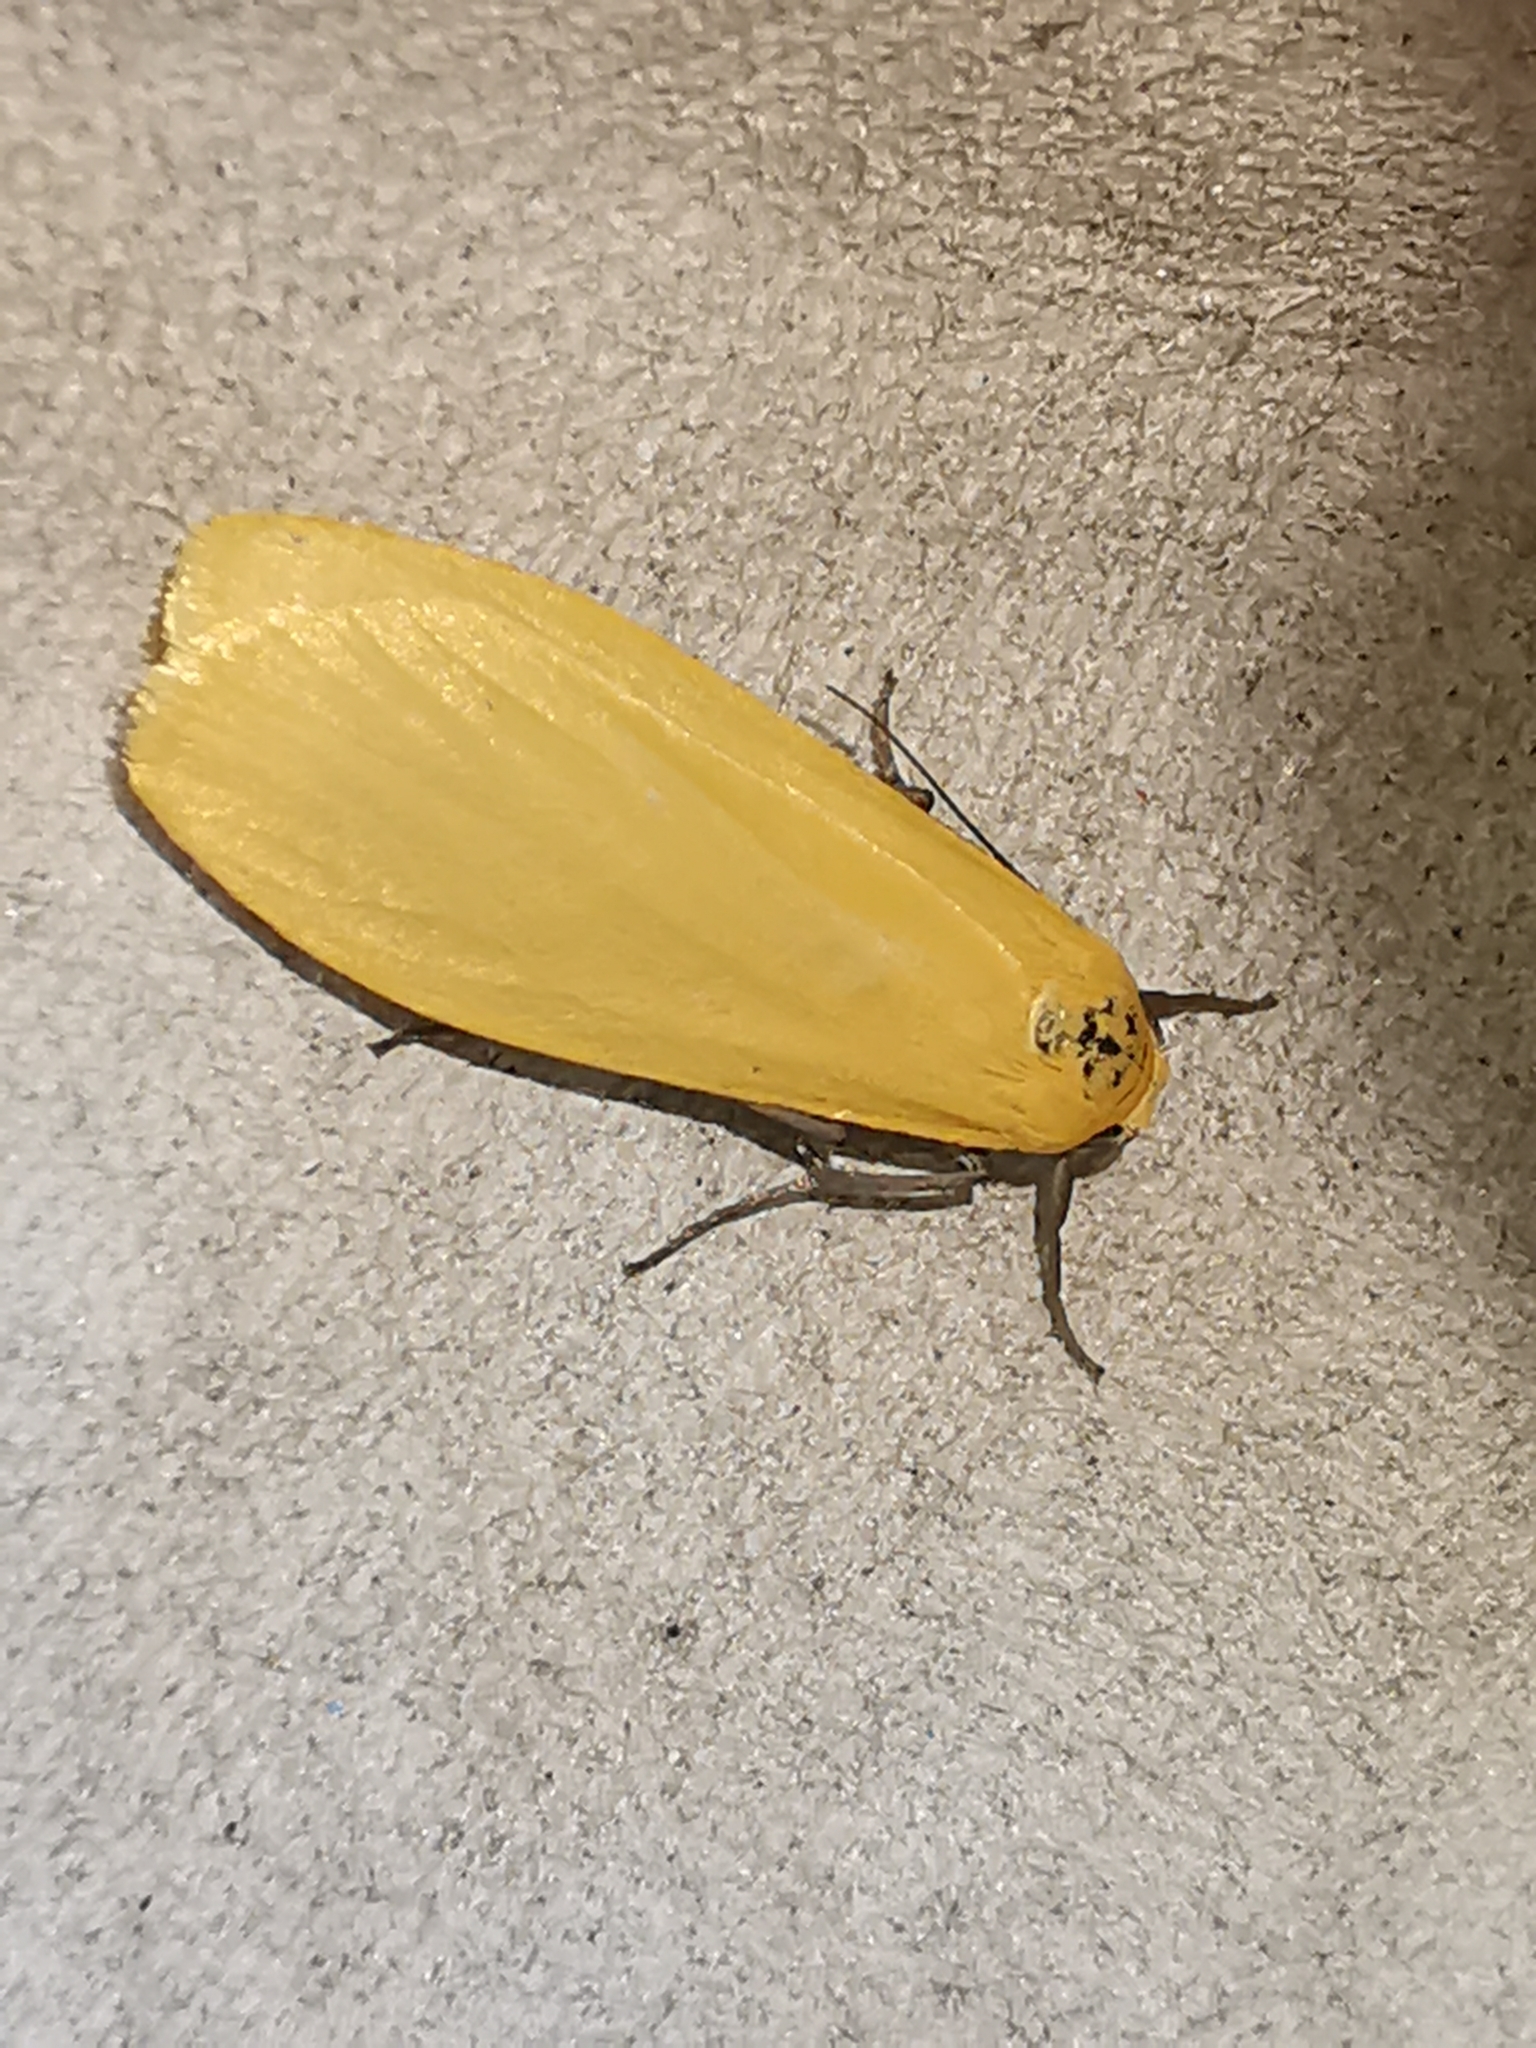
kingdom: Animalia
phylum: Arthropoda
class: Insecta
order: Lepidoptera
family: Erebidae
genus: Wittia
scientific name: Wittia sororcula
